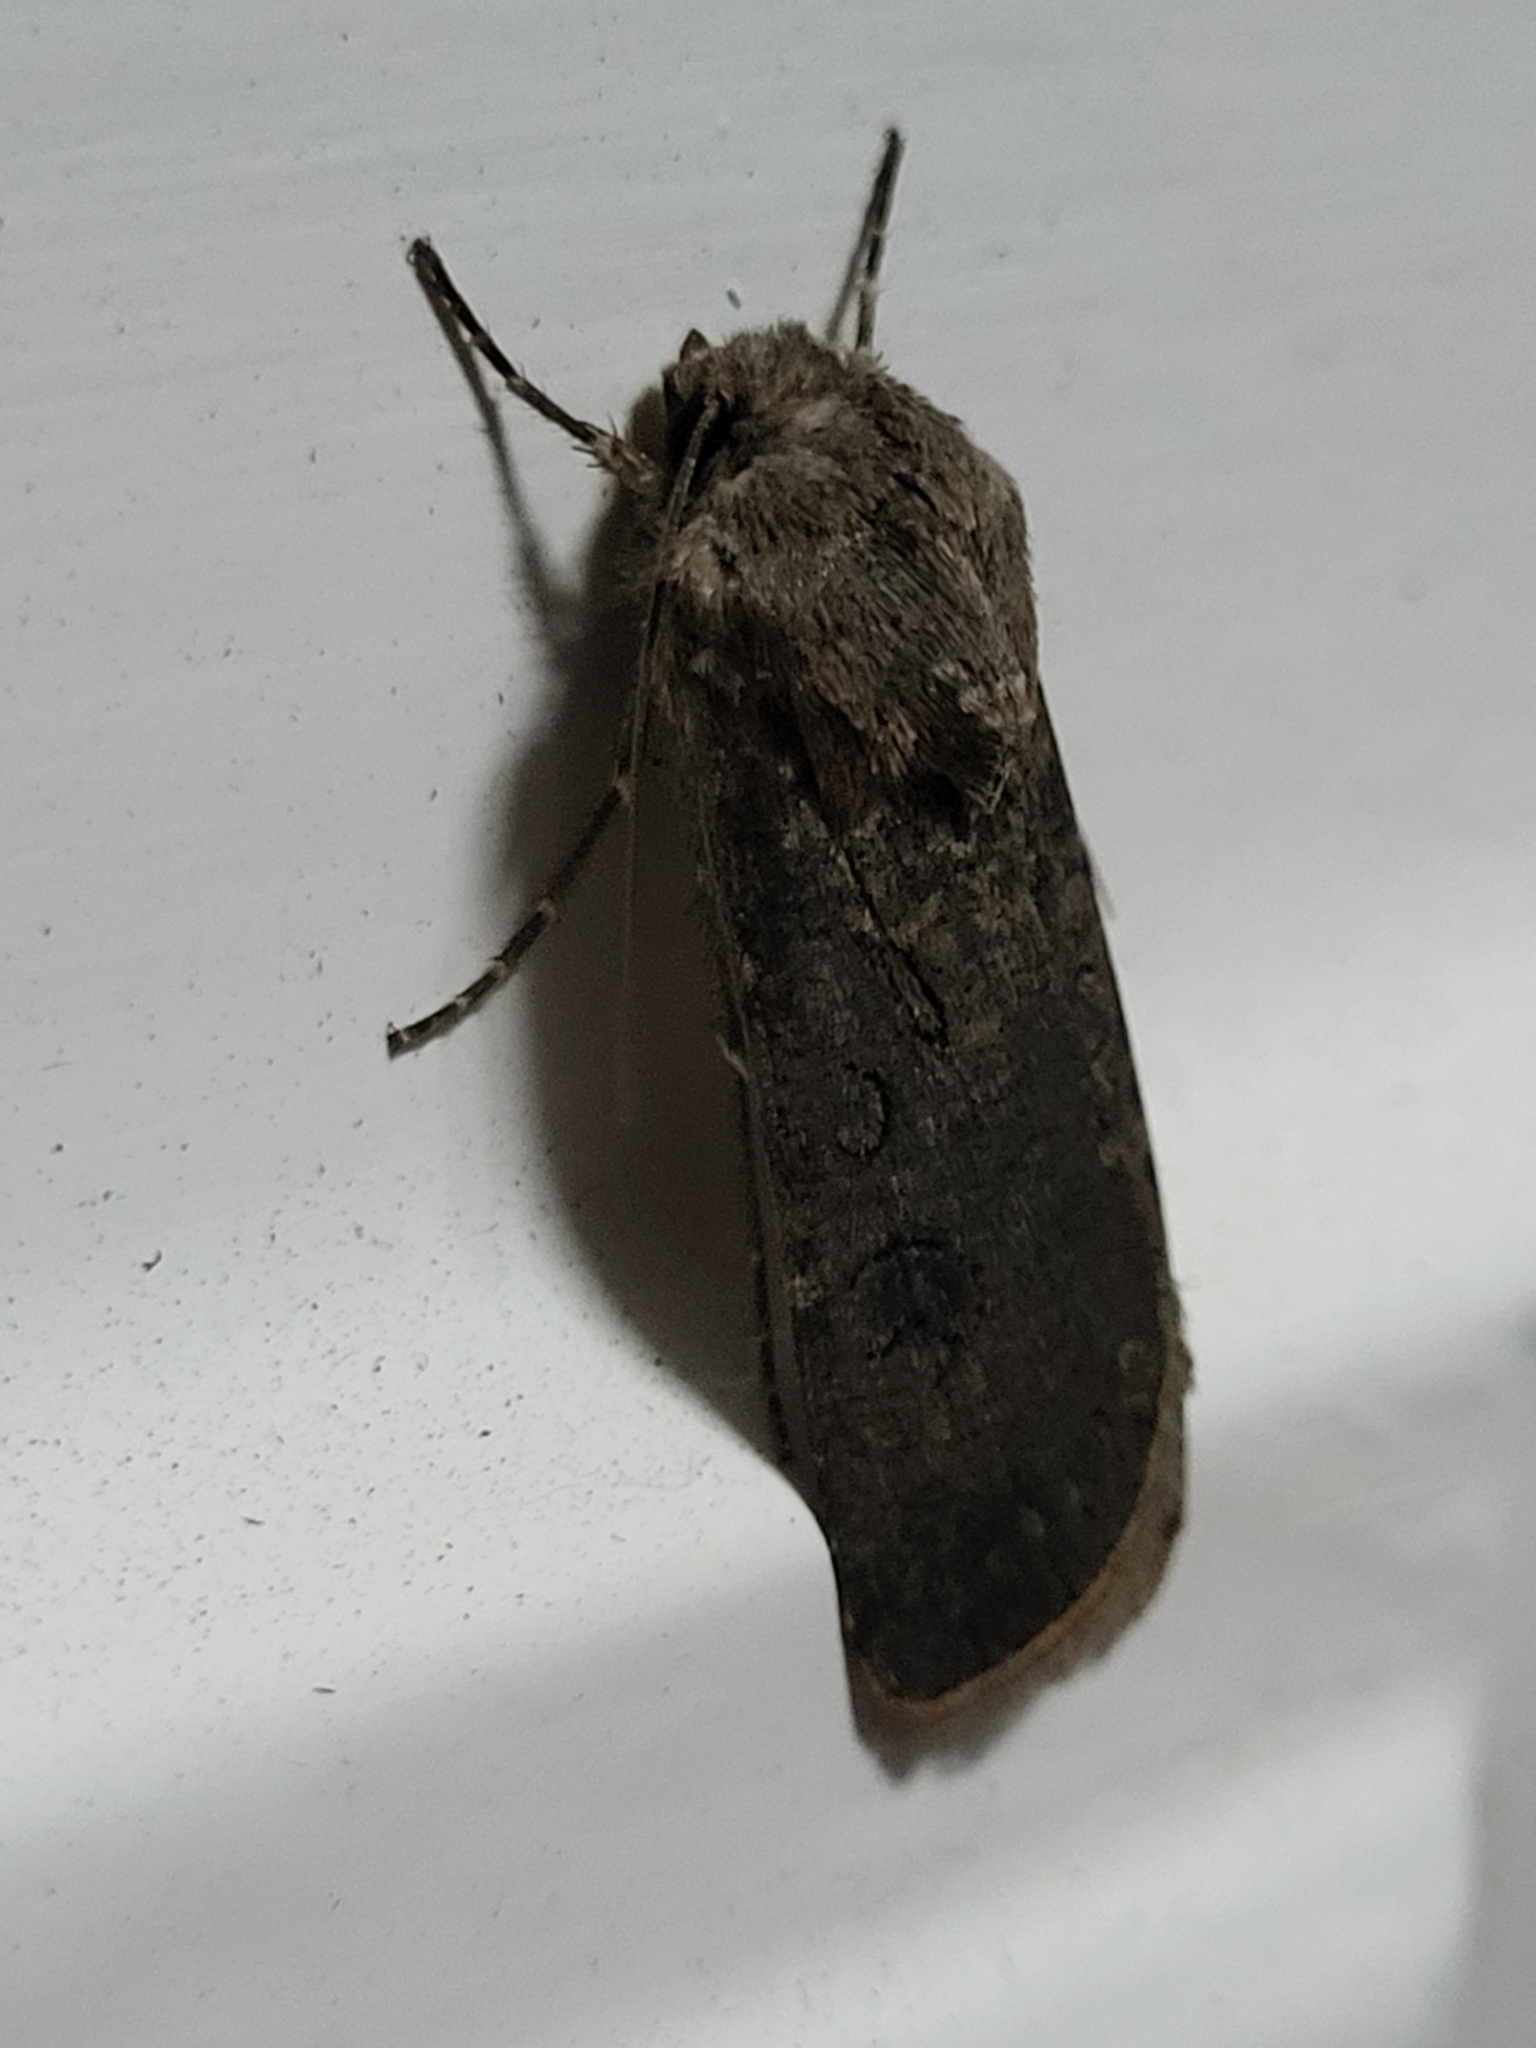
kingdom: Animalia
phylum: Arthropoda
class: Insecta
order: Lepidoptera
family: Noctuidae
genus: Agrotis
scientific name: Agrotis segetum
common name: Turnip moth
